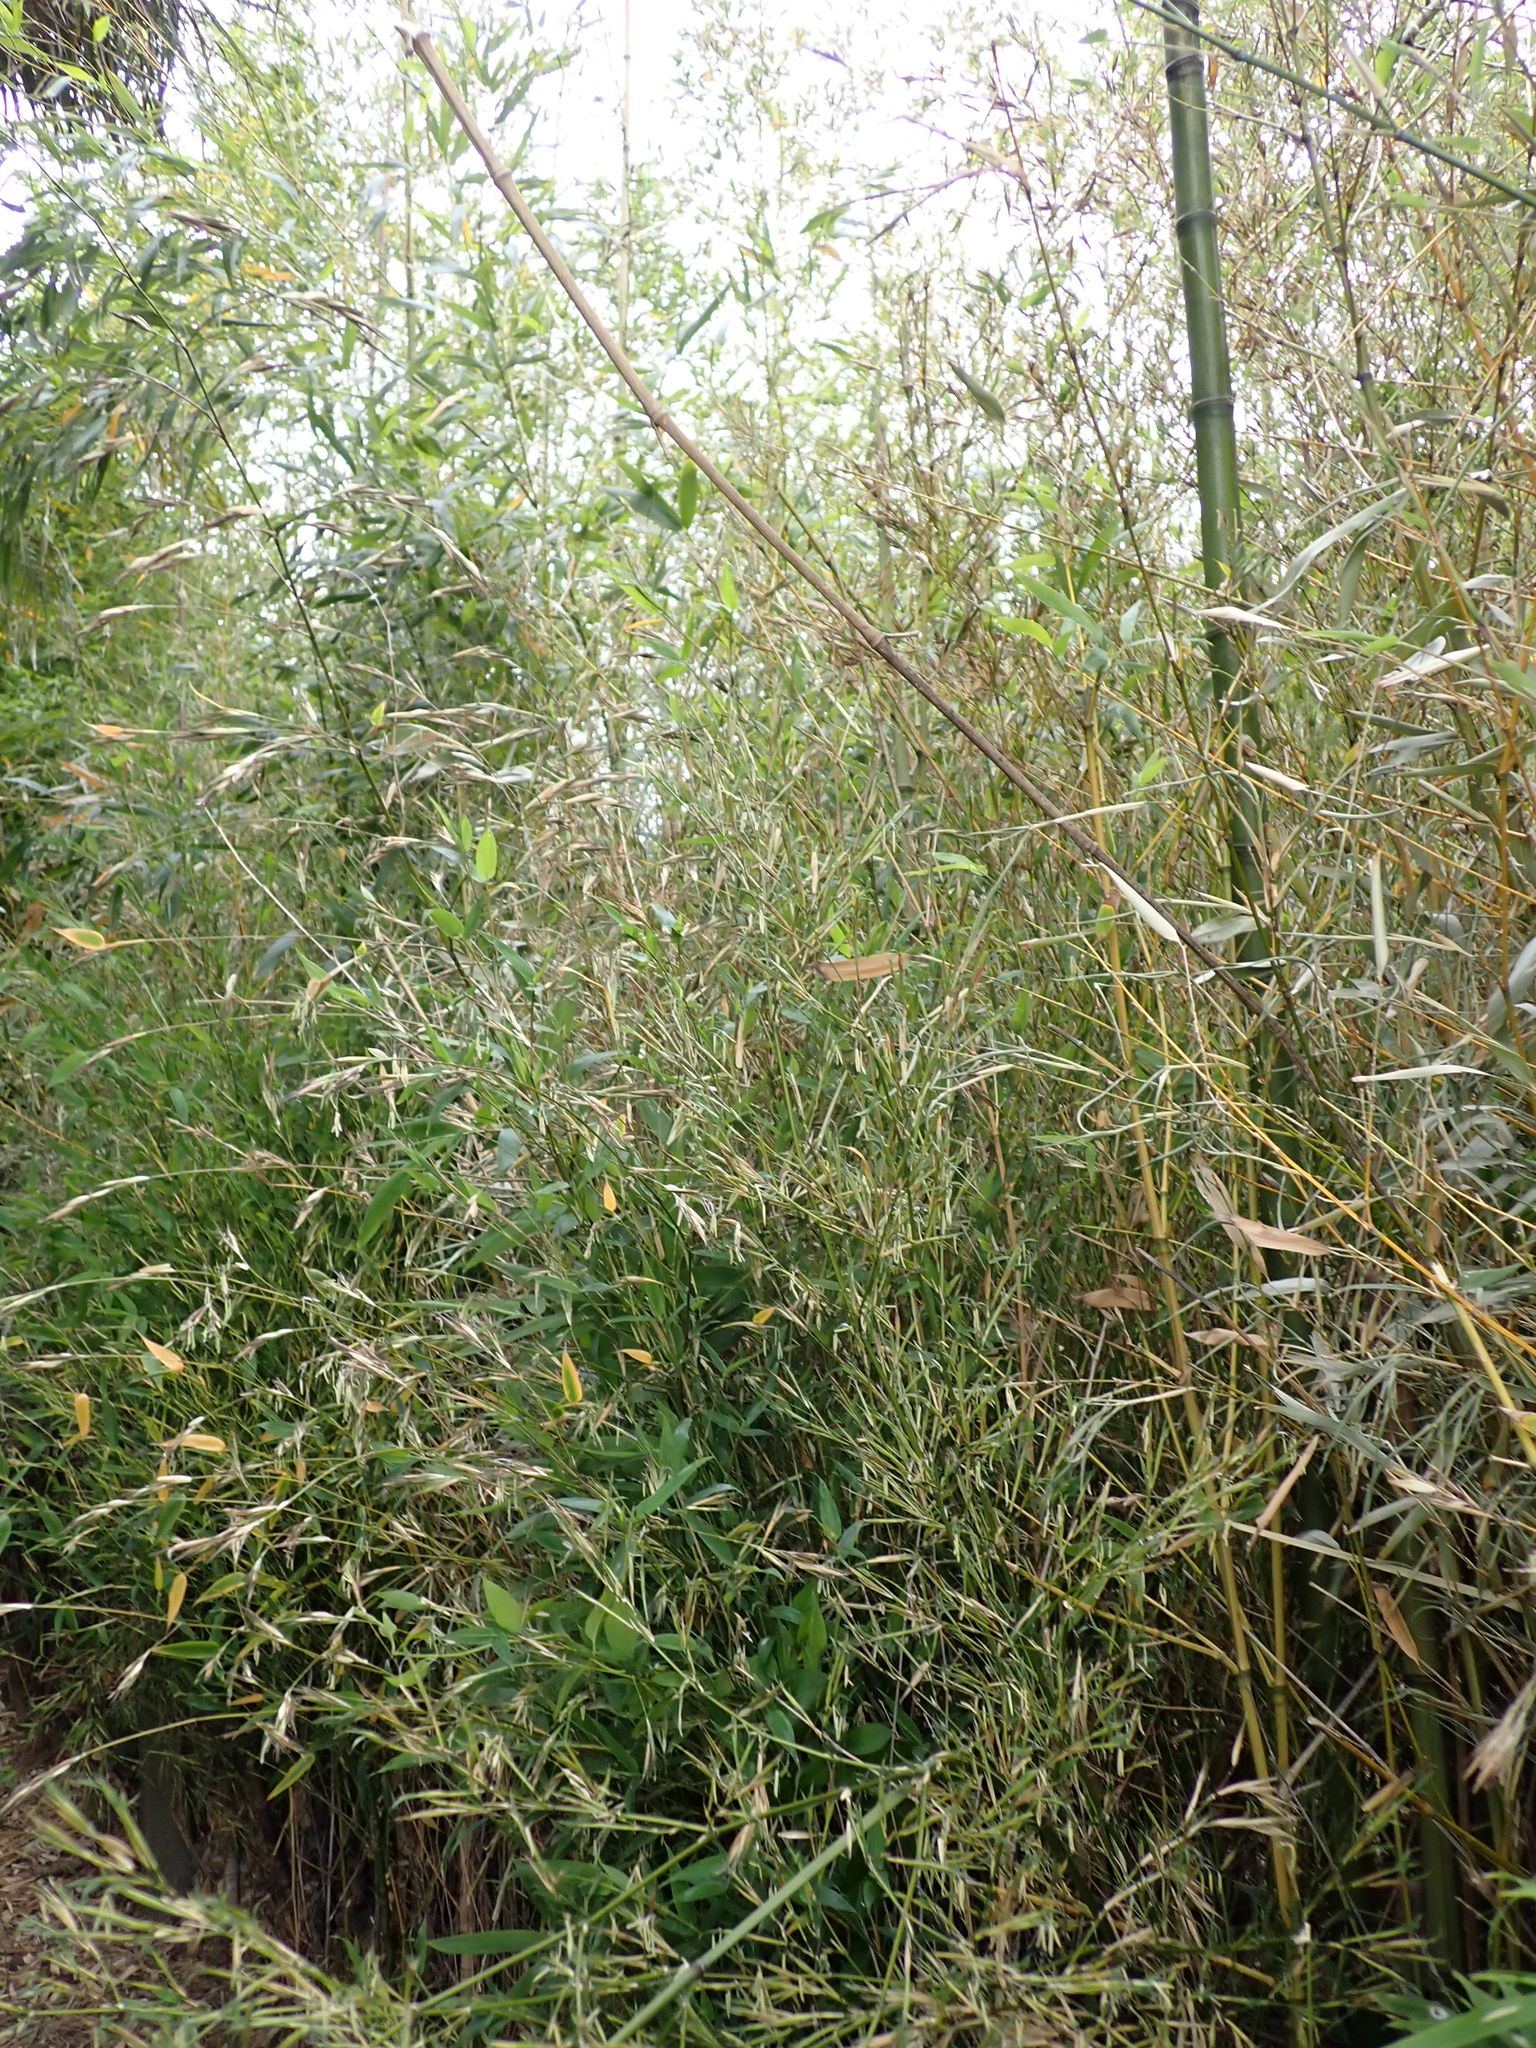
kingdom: Animalia
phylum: Arthropoda
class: Insecta
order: Coleoptera
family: Curculionidae
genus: Microcryptorhynchus
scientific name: Microcryptorhynchus perpusillus
